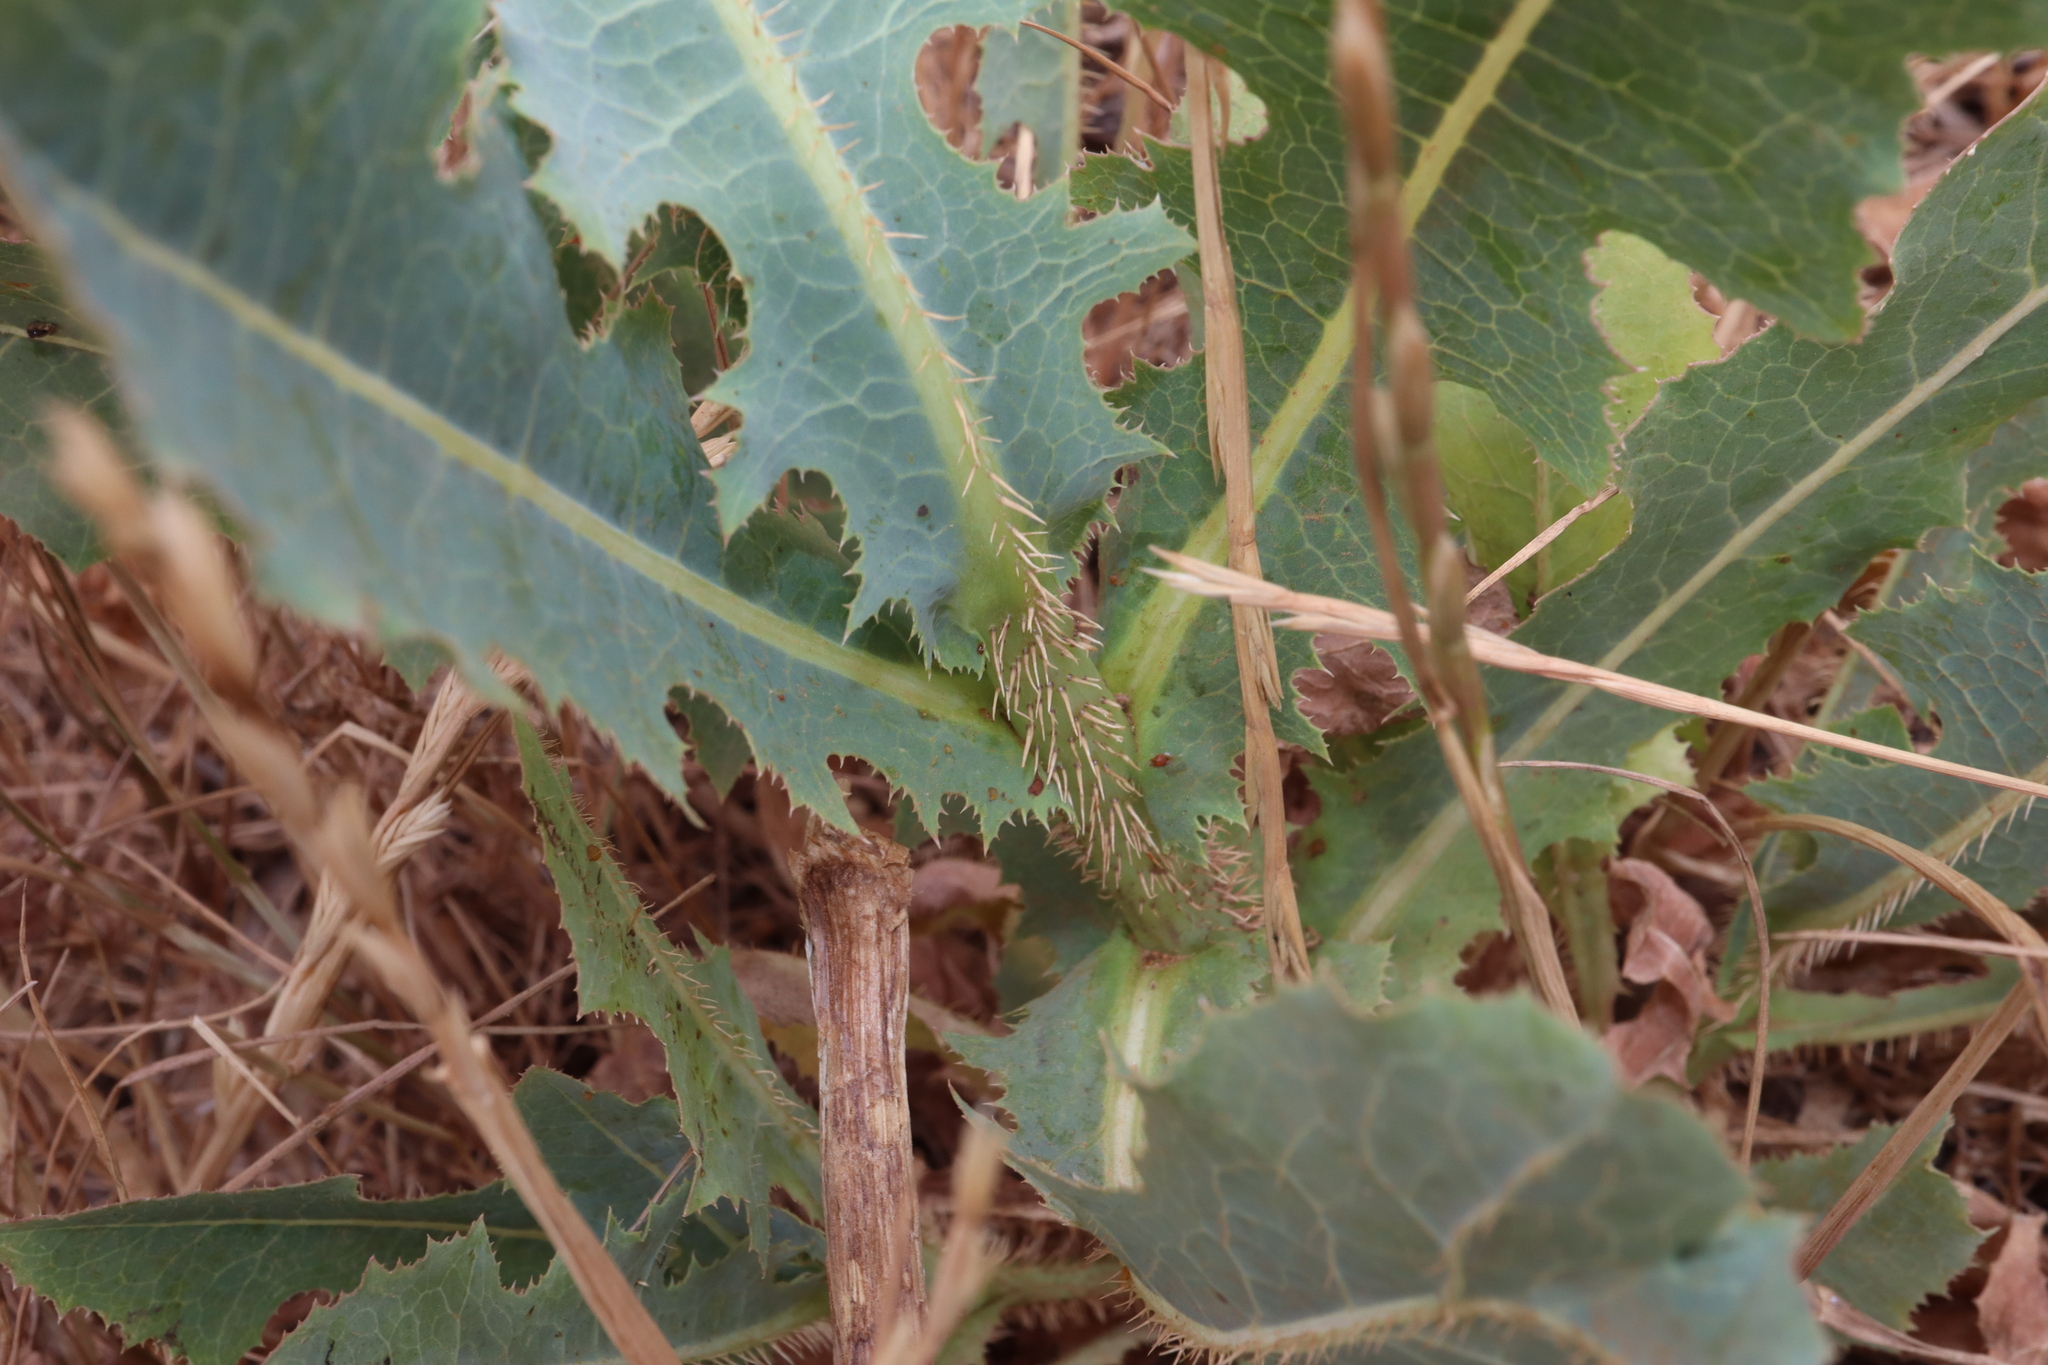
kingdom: Plantae
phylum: Tracheophyta
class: Magnoliopsida
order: Asterales
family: Asteraceae
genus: Lactuca
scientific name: Lactuca serriola
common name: Prickly lettuce
